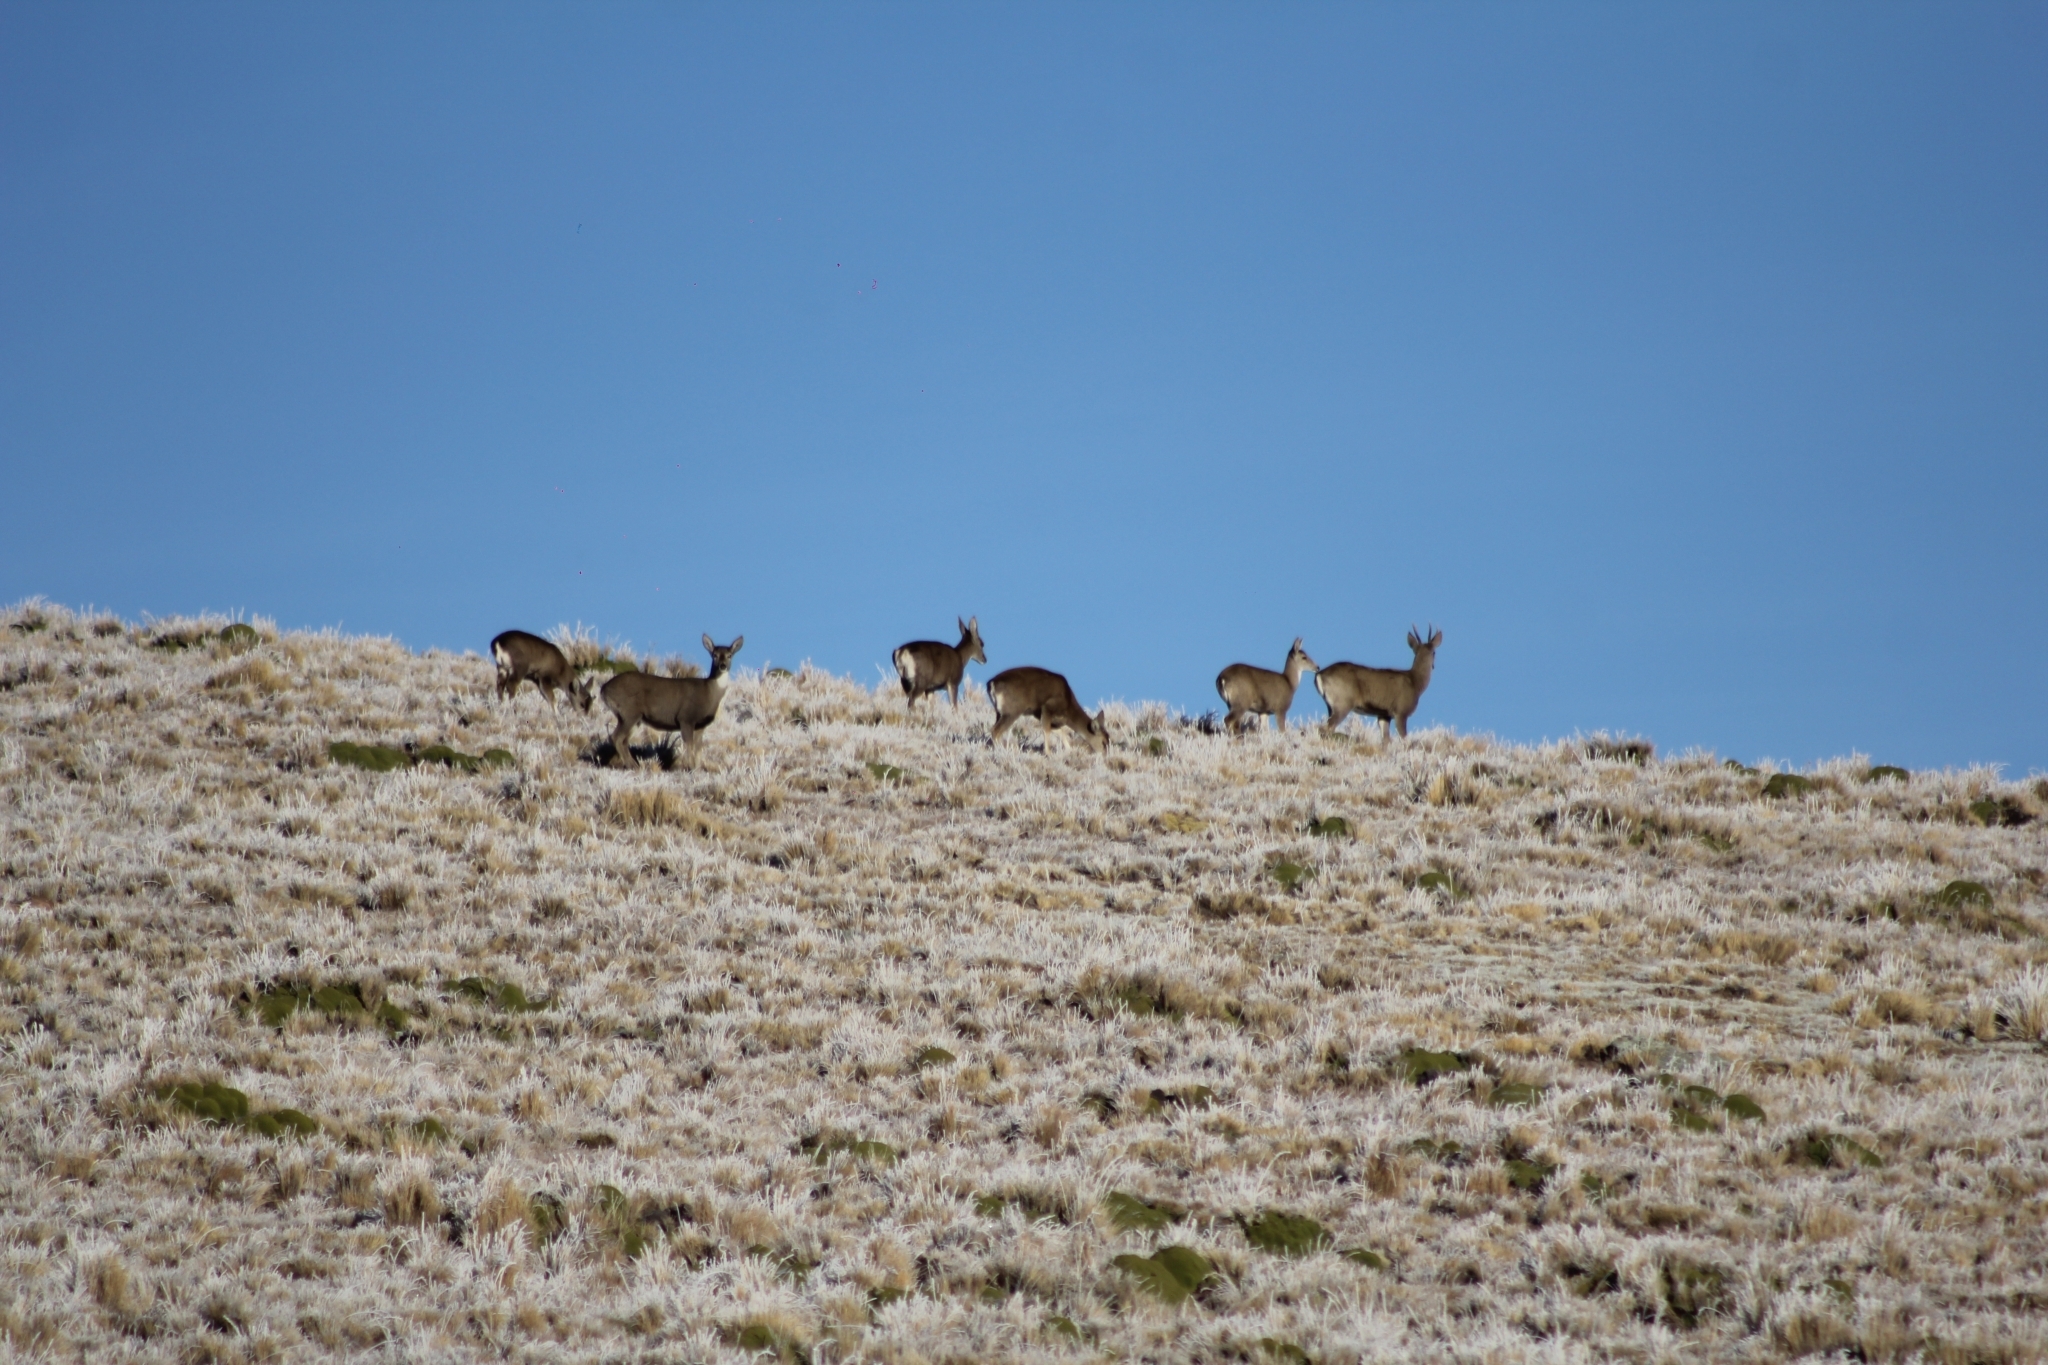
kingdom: Animalia
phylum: Chordata
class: Mammalia
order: Artiodactyla
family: Cervidae
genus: Hippocamelus
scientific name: Hippocamelus antisensis
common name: Taruca
